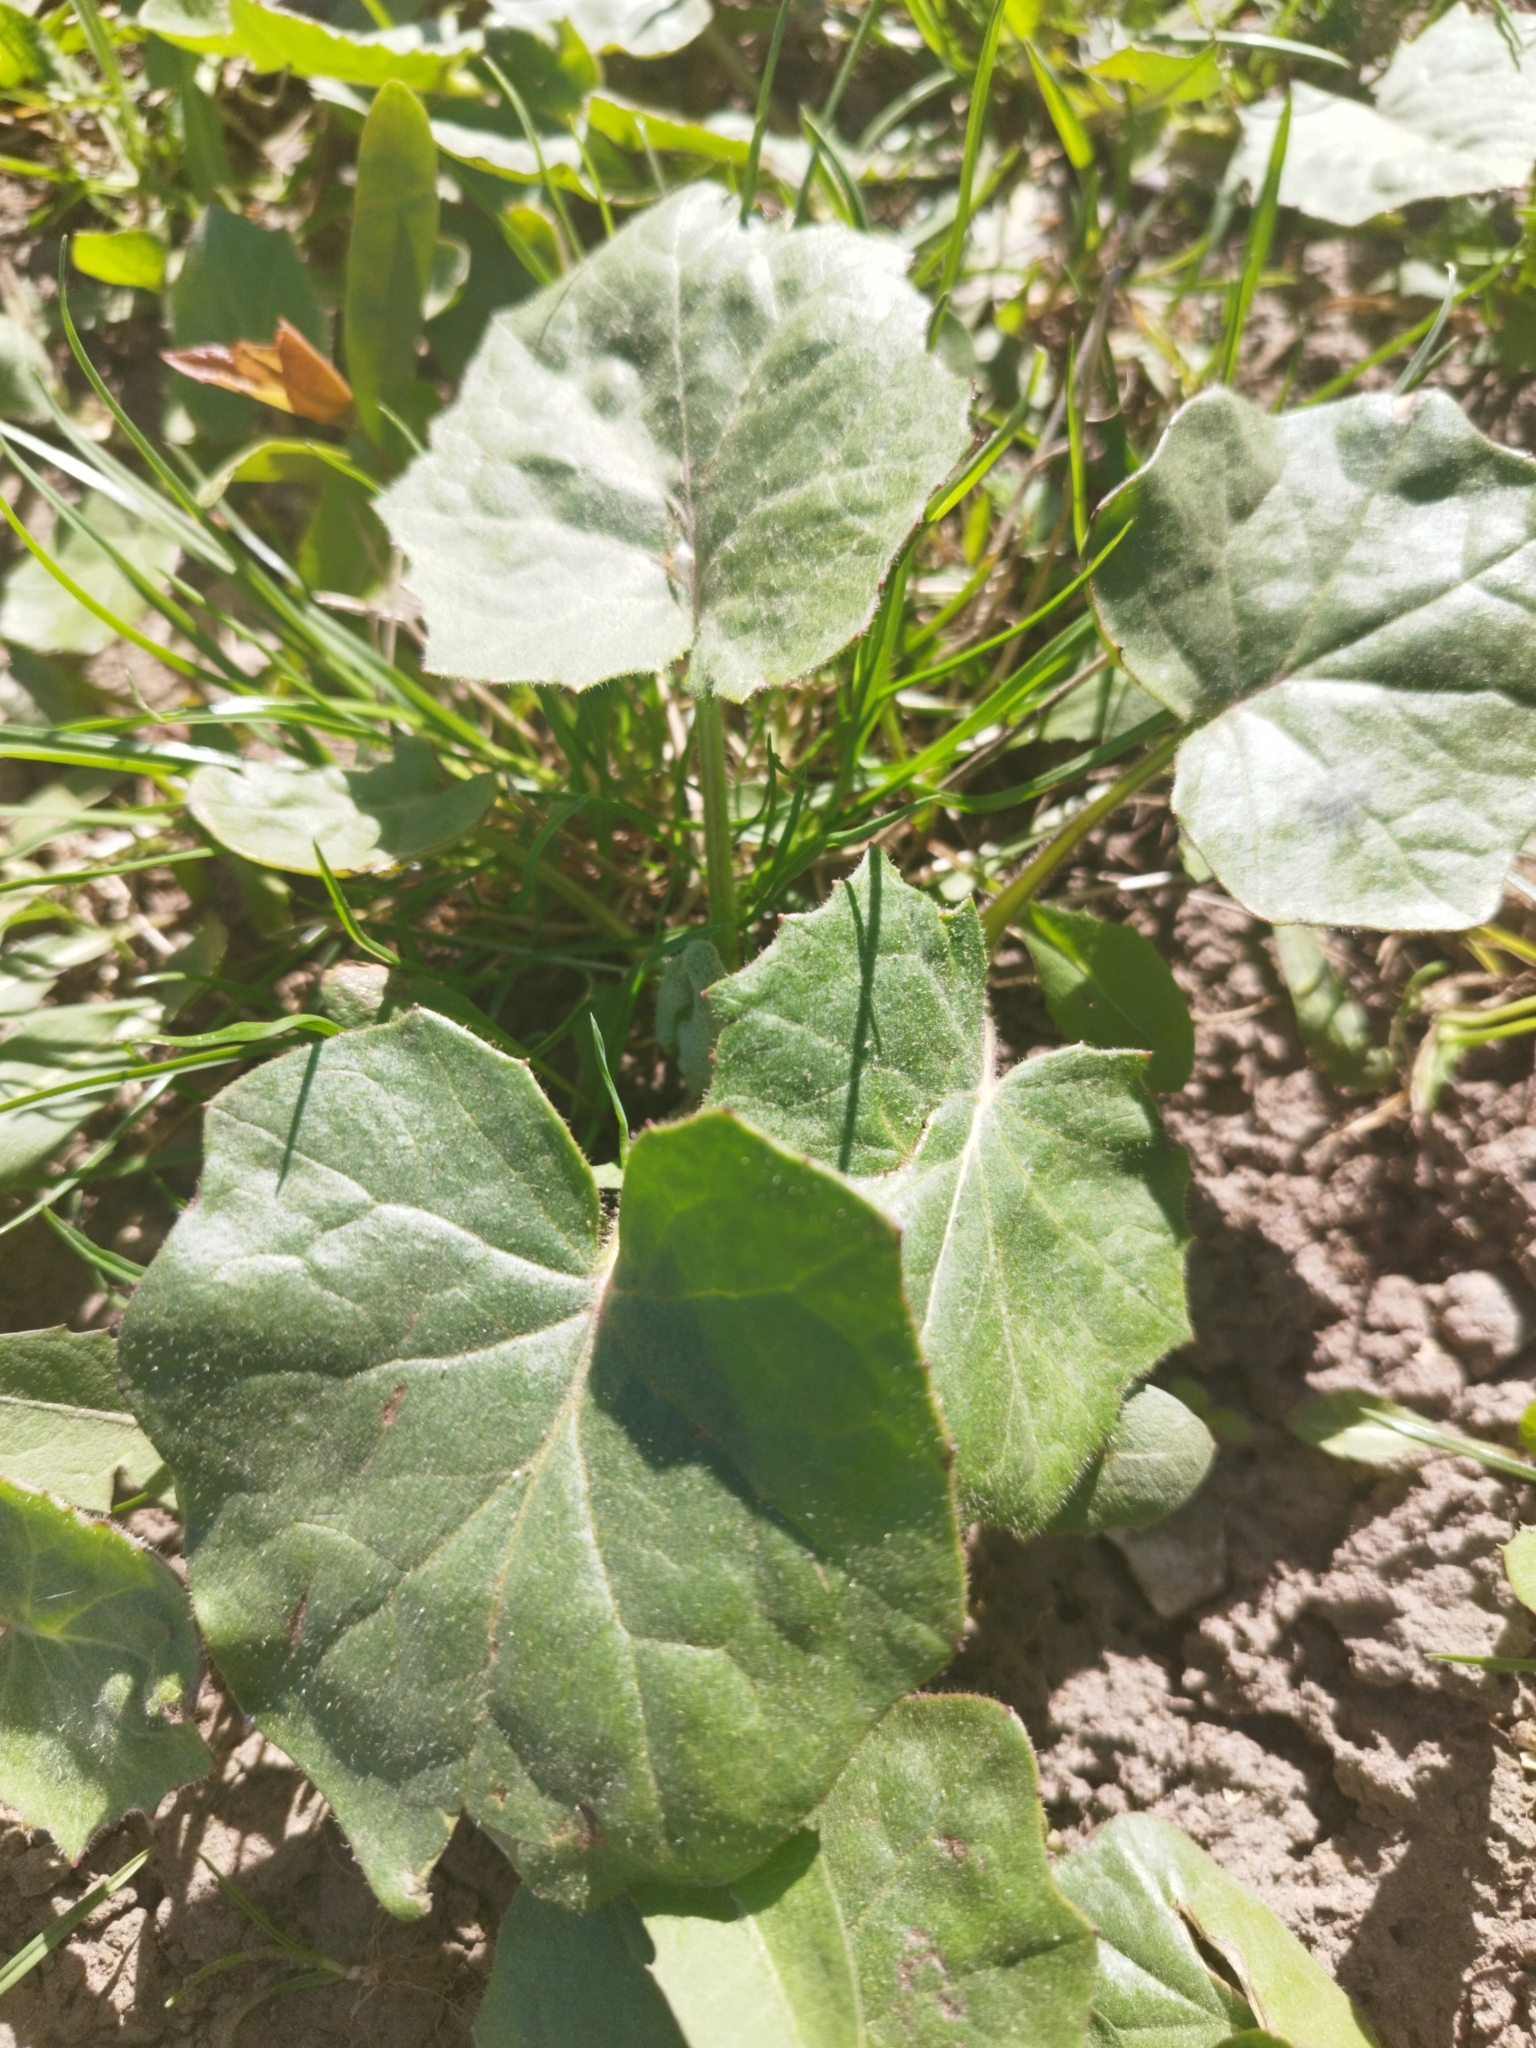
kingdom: Plantae
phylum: Tracheophyta
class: Magnoliopsida
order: Asterales
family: Asteraceae
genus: Tussilago
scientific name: Tussilago farfara
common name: Coltsfoot
